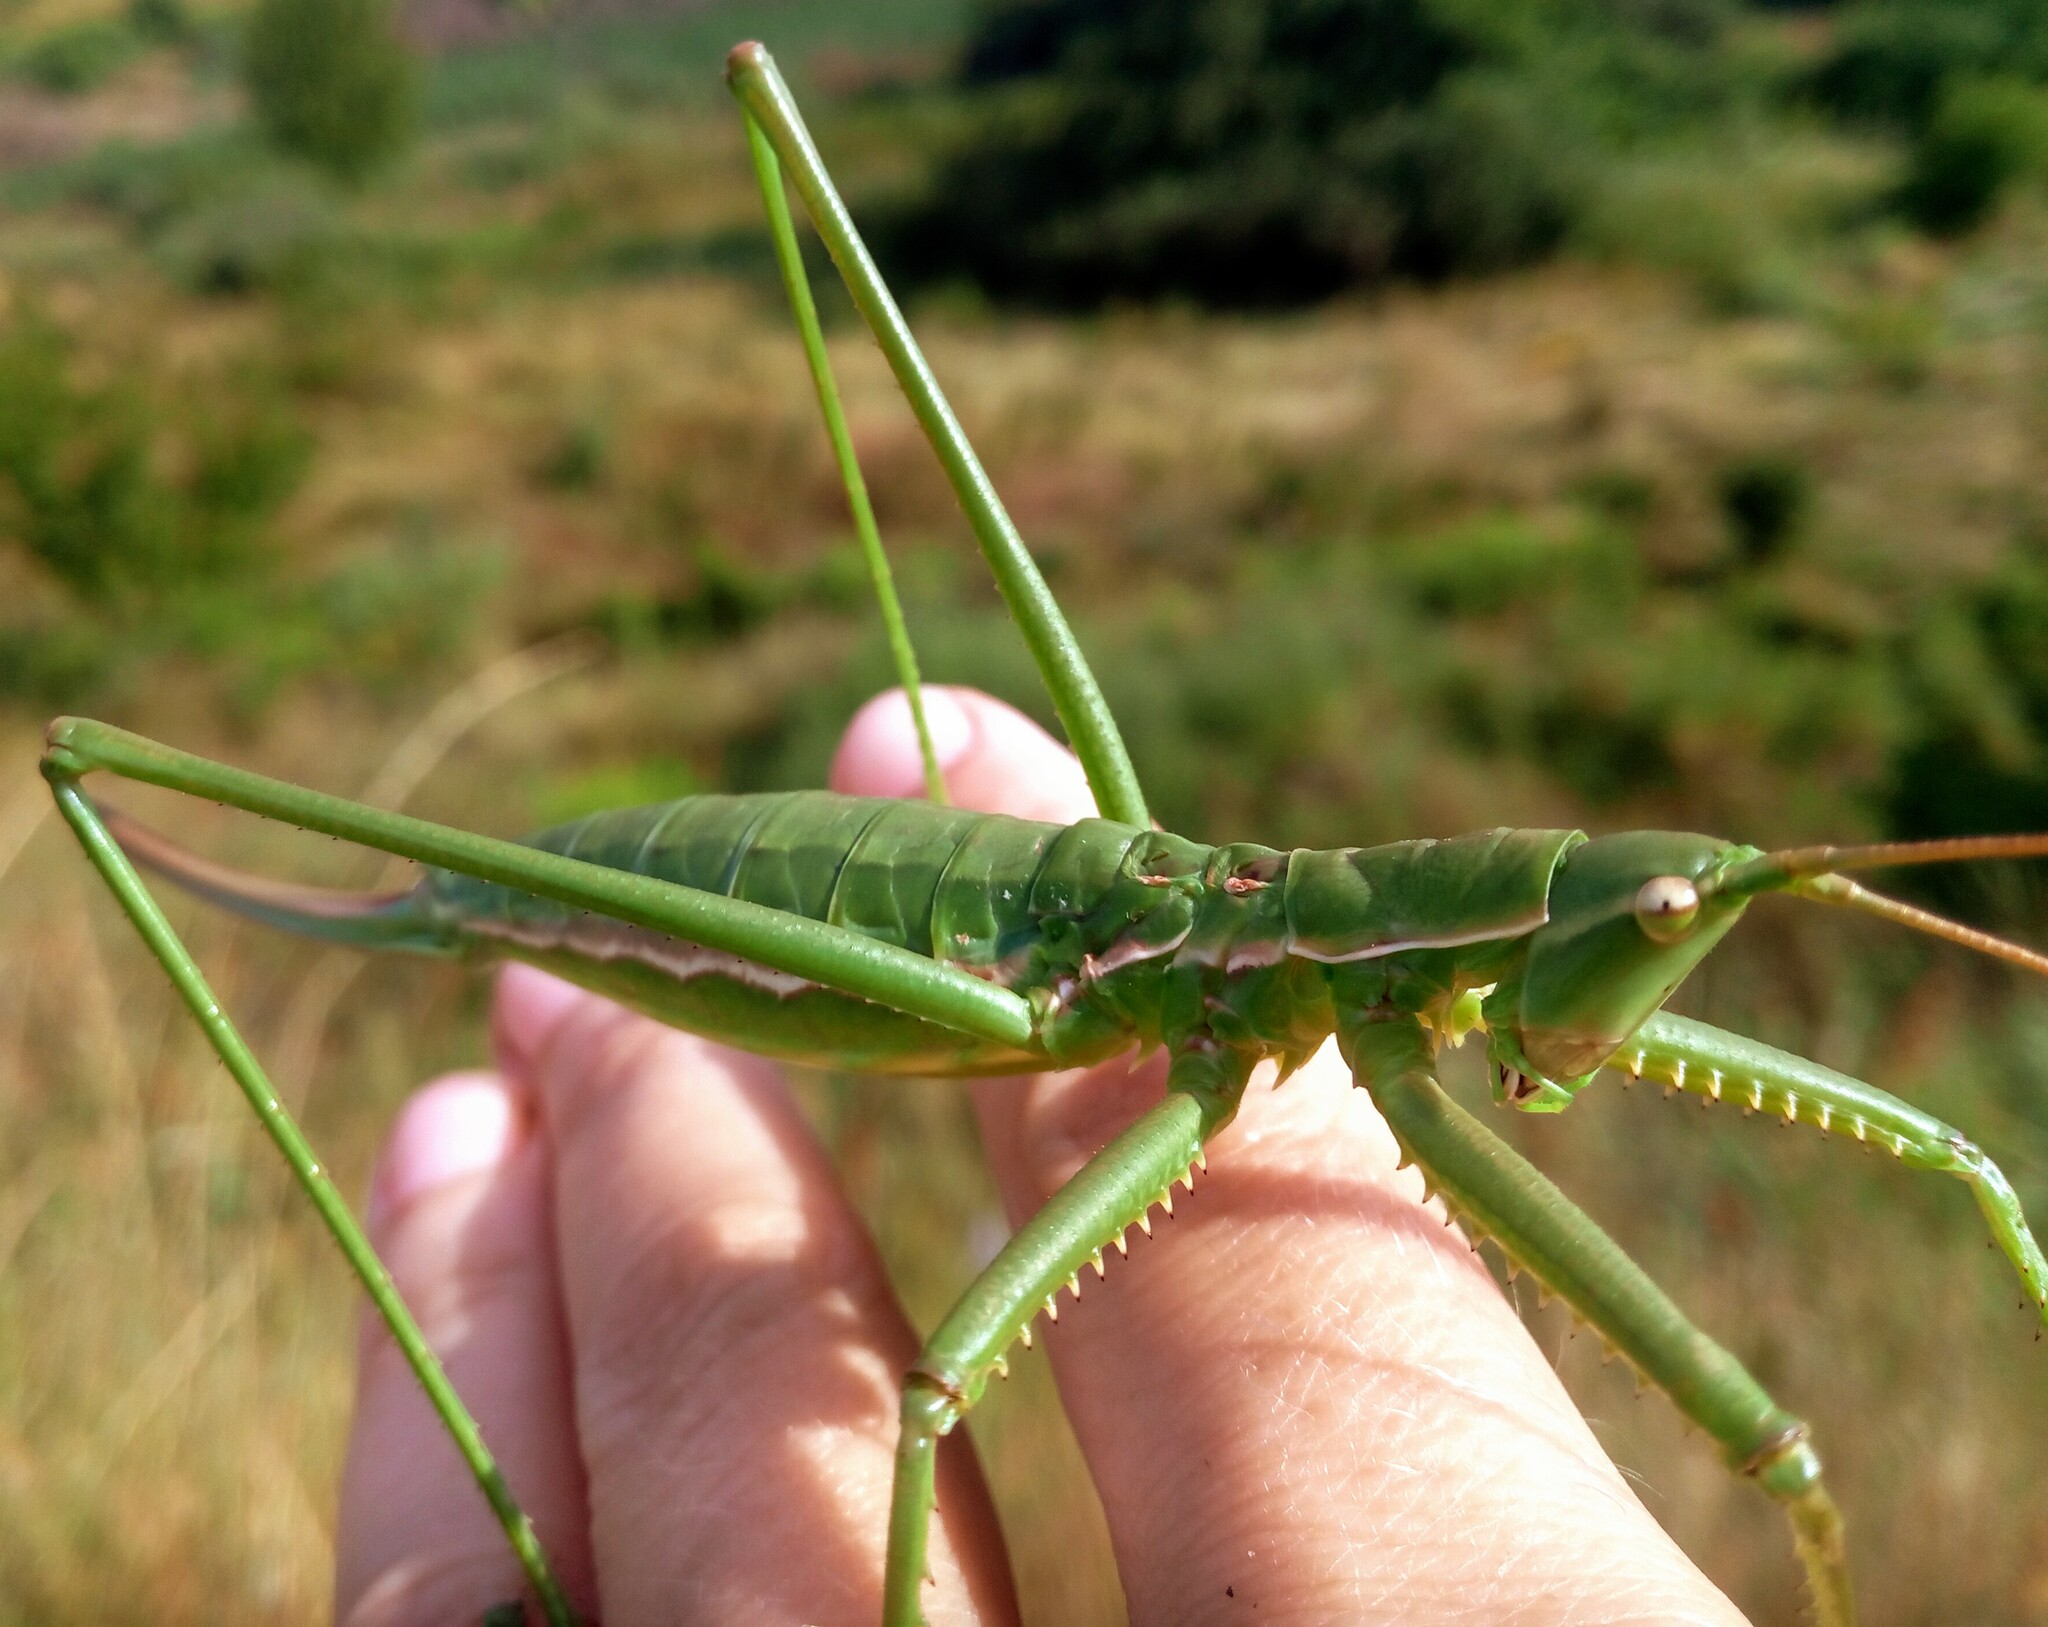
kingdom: Animalia
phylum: Arthropoda
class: Insecta
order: Orthoptera
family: Tettigoniidae
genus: Saga
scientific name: Saga pedo
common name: Common predatory bush-cricket
